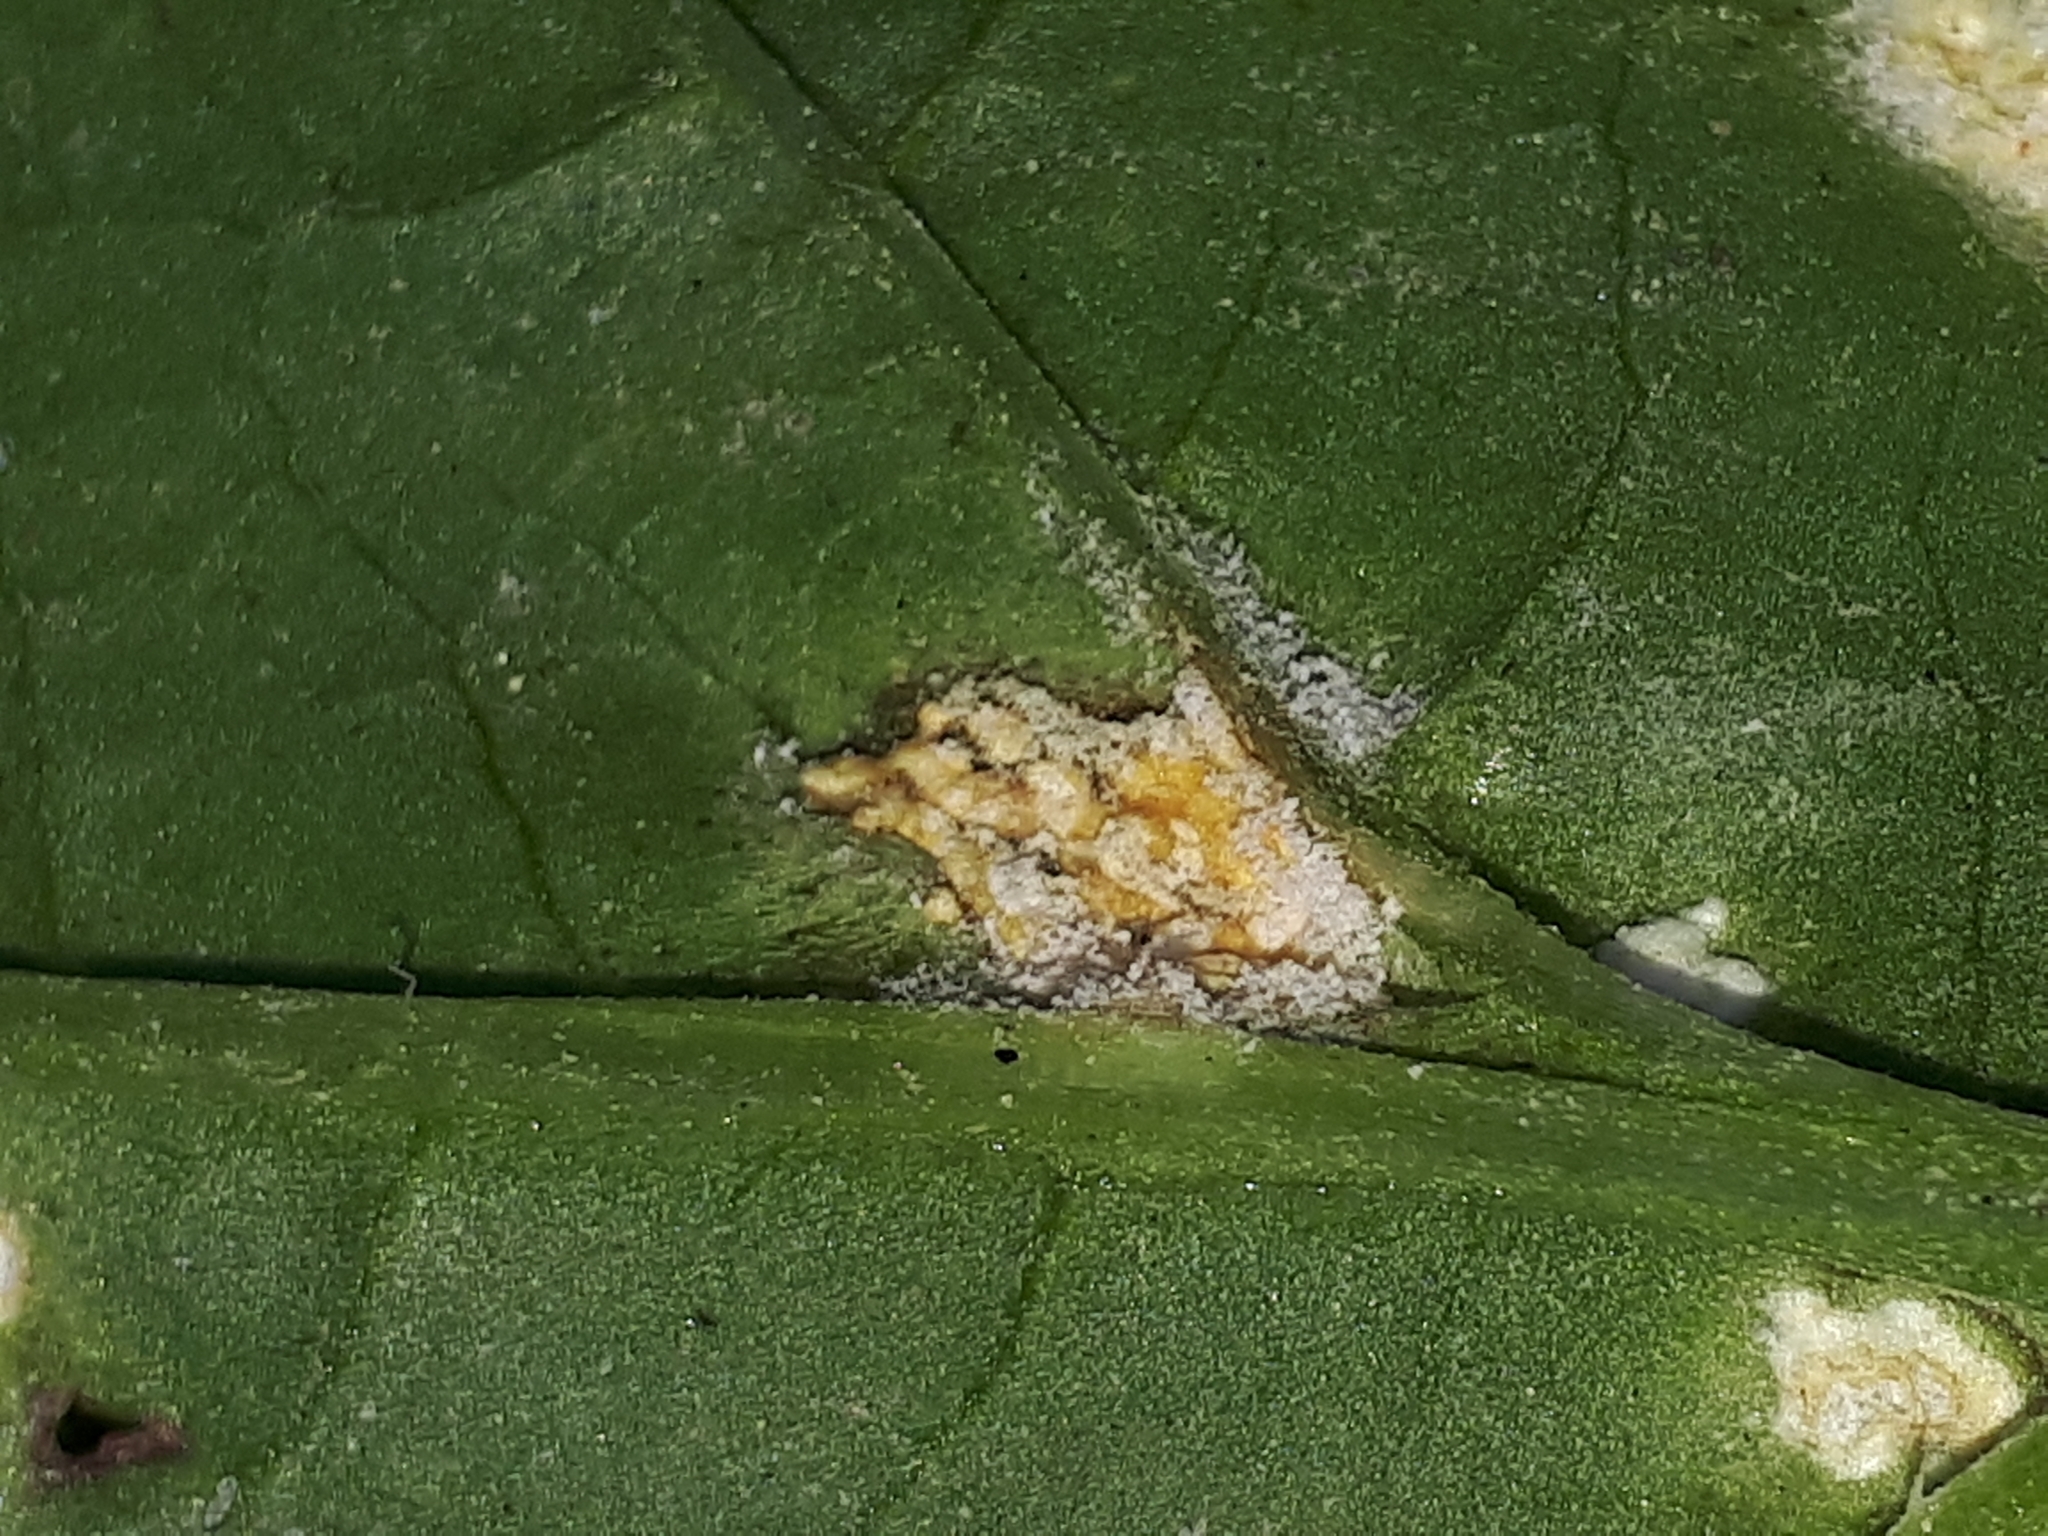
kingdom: Chromista
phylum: Oomycota
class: Peronosporea
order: Albuginales
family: Albuginaceae
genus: Albugo
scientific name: Albugo candida
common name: Crucifer white blister
